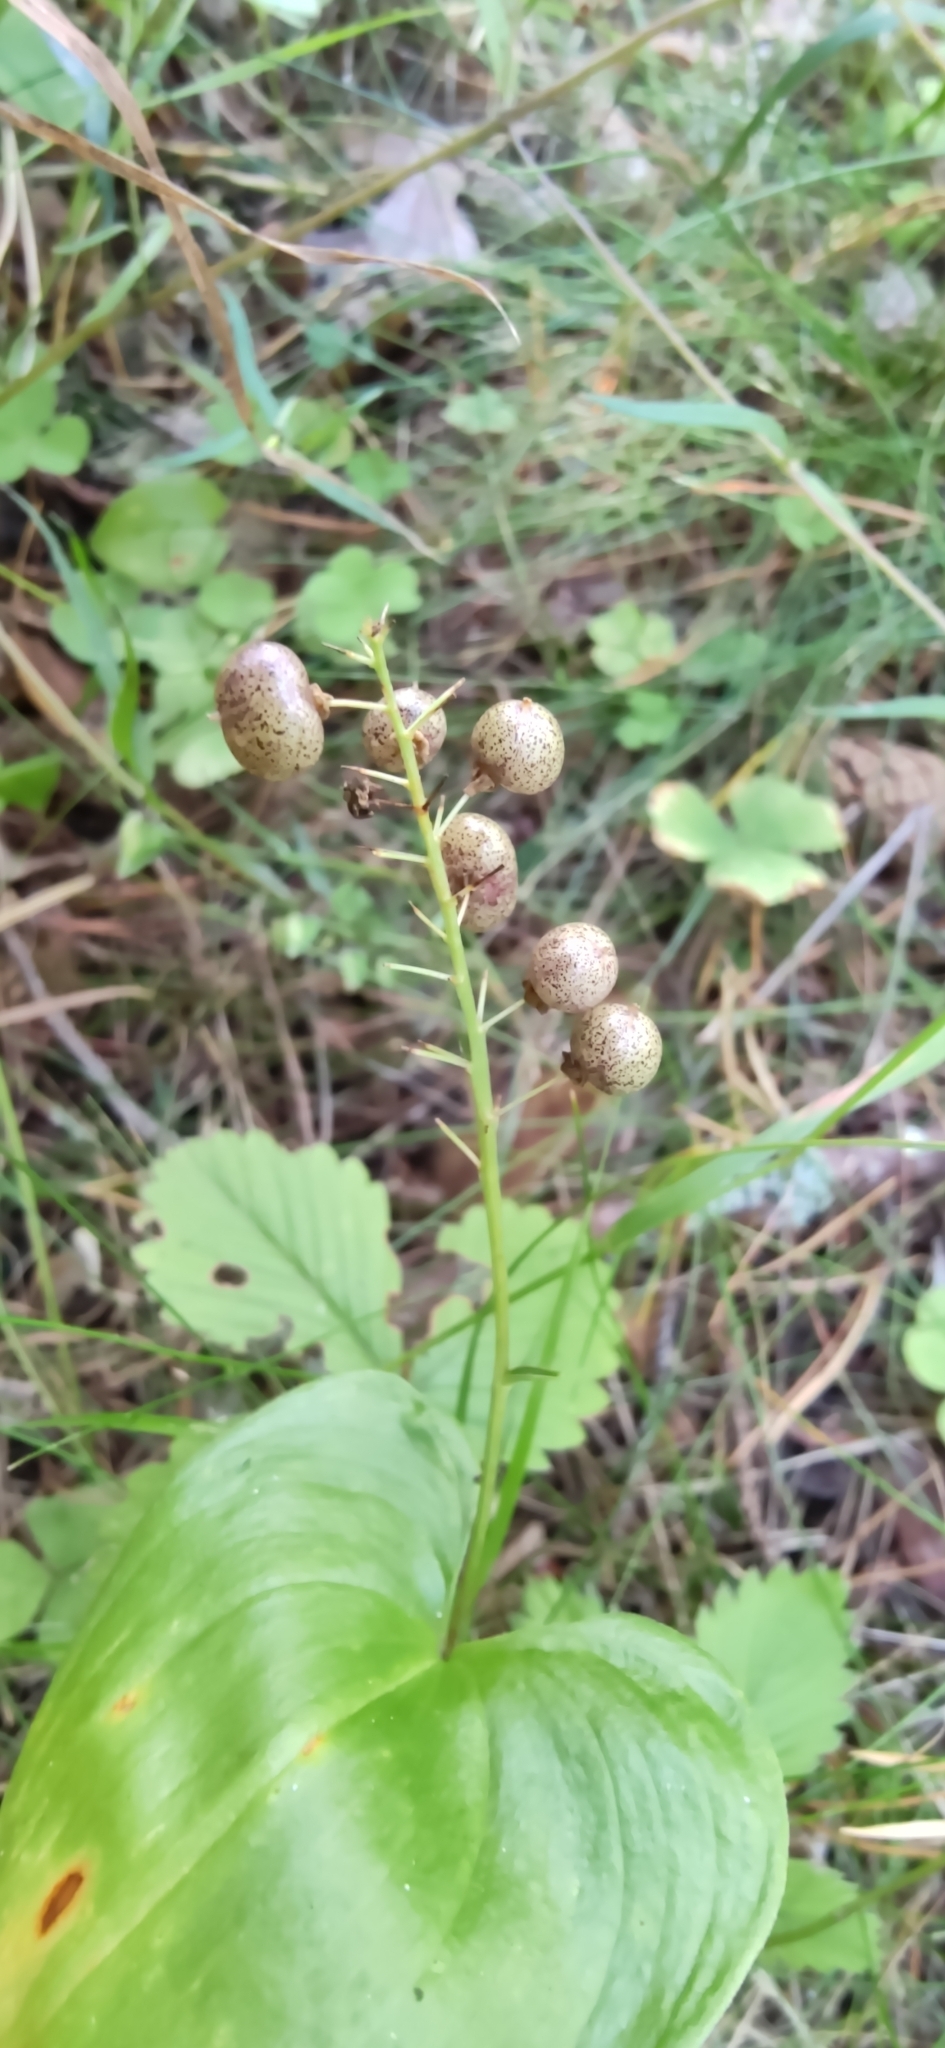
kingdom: Plantae
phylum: Tracheophyta
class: Liliopsida
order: Asparagales
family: Asparagaceae
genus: Maianthemum
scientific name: Maianthemum bifolium
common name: May lily
